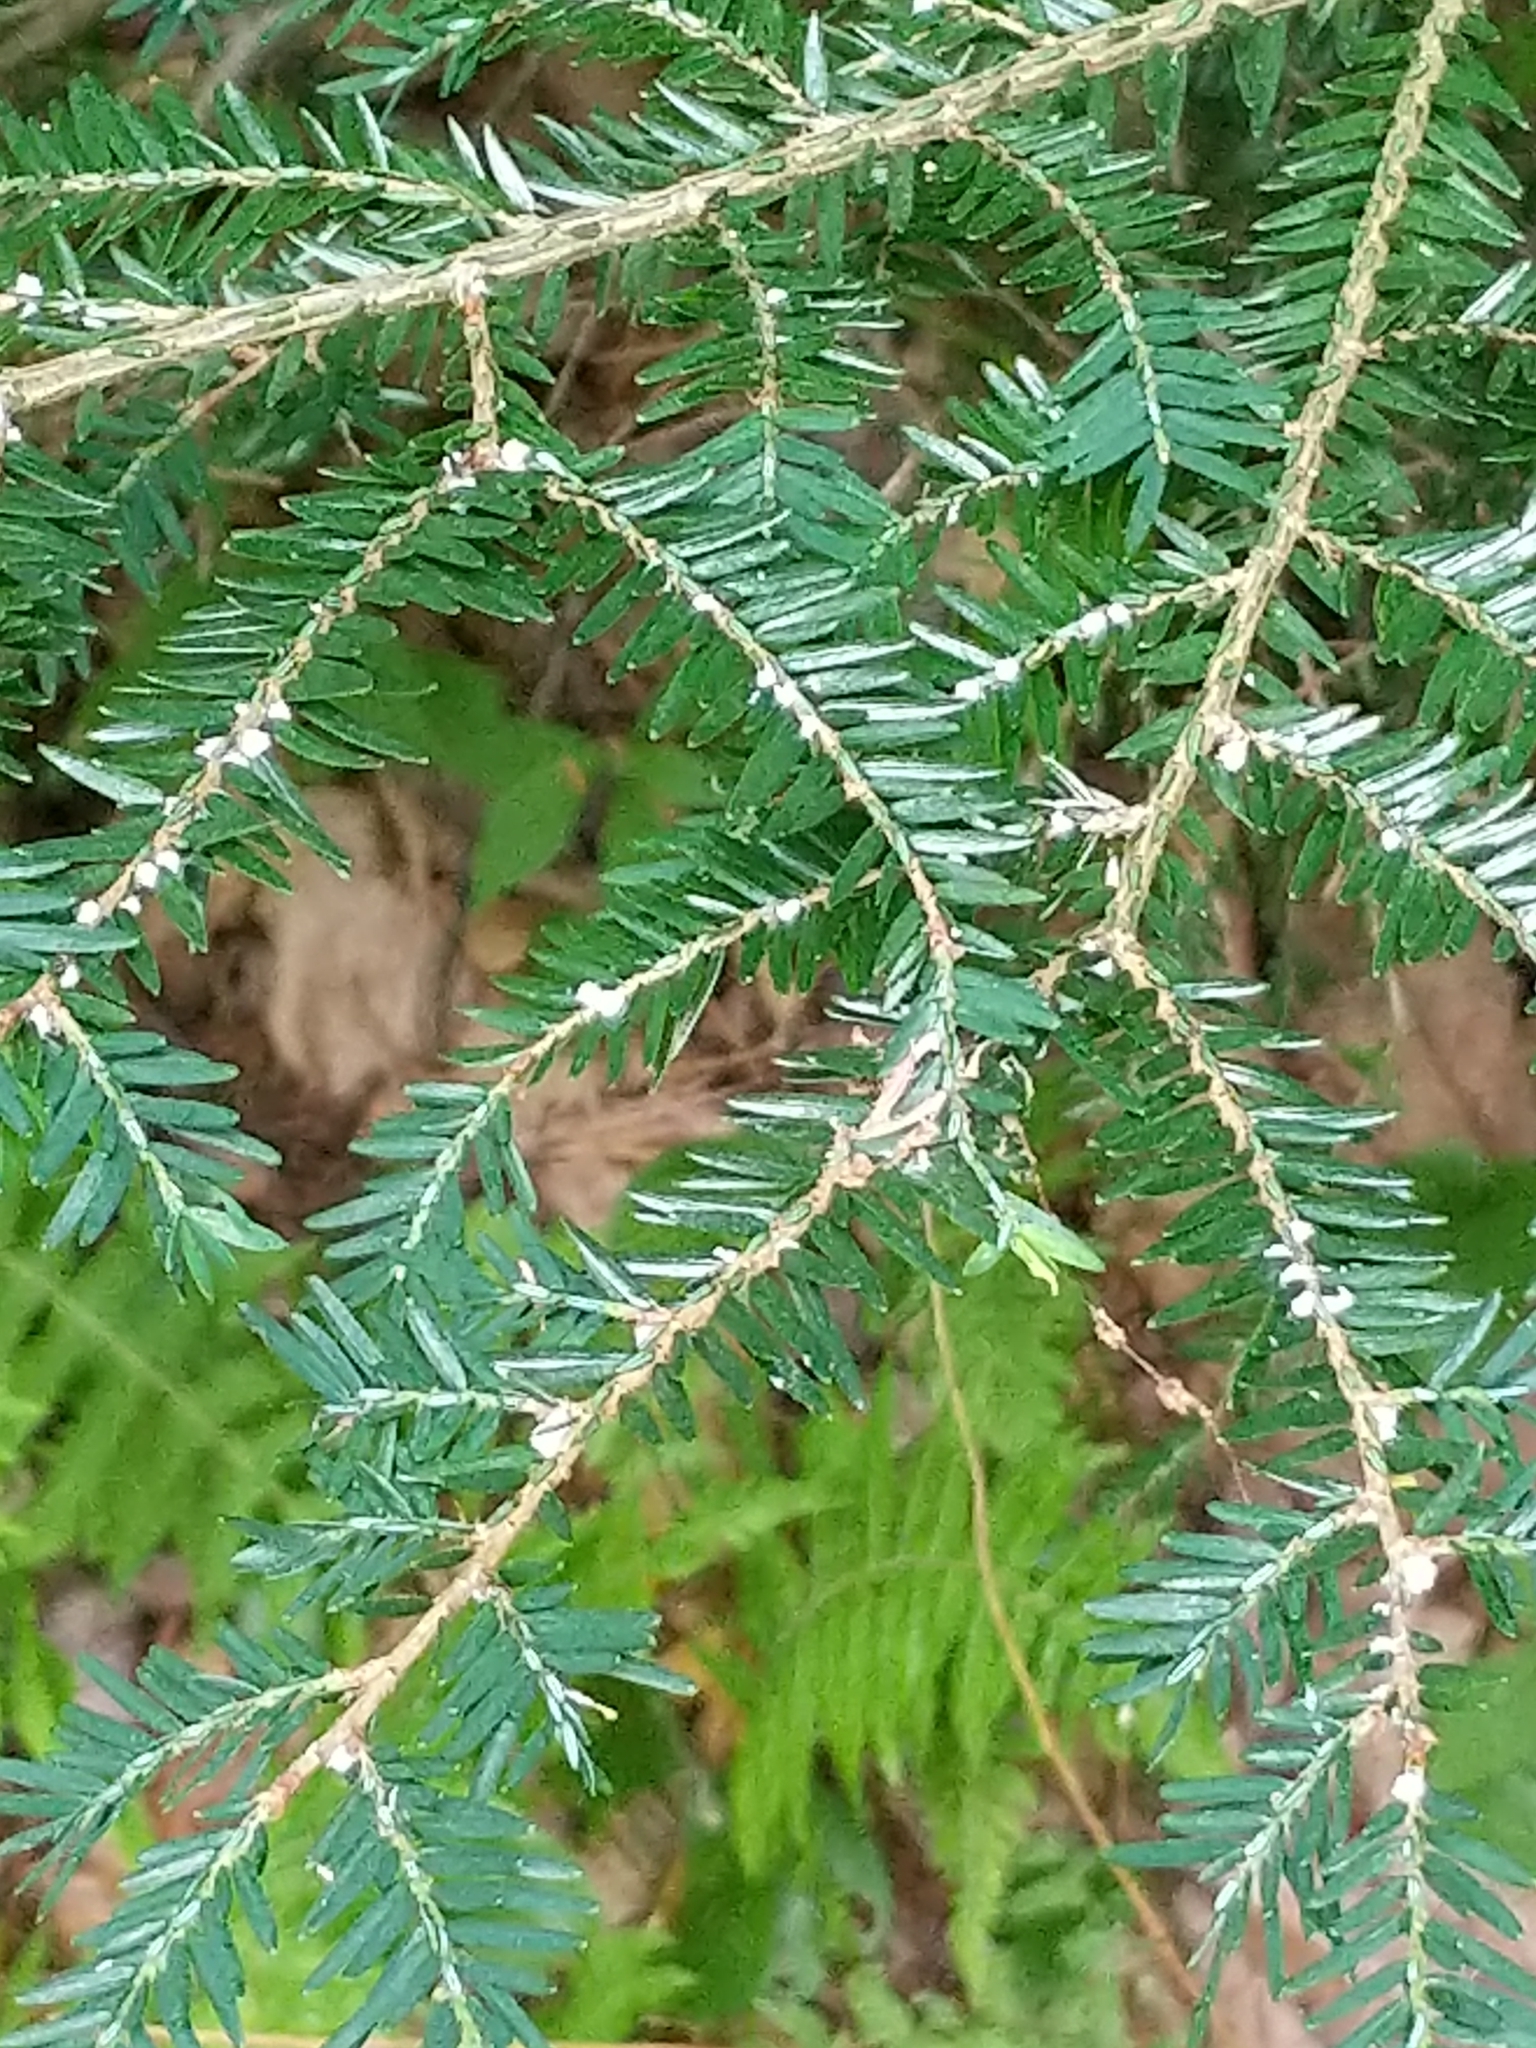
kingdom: Animalia
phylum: Arthropoda
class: Insecta
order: Hemiptera
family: Adelgidae
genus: Adelges
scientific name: Adelges tsugae
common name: Hemlock woolly adelgid
